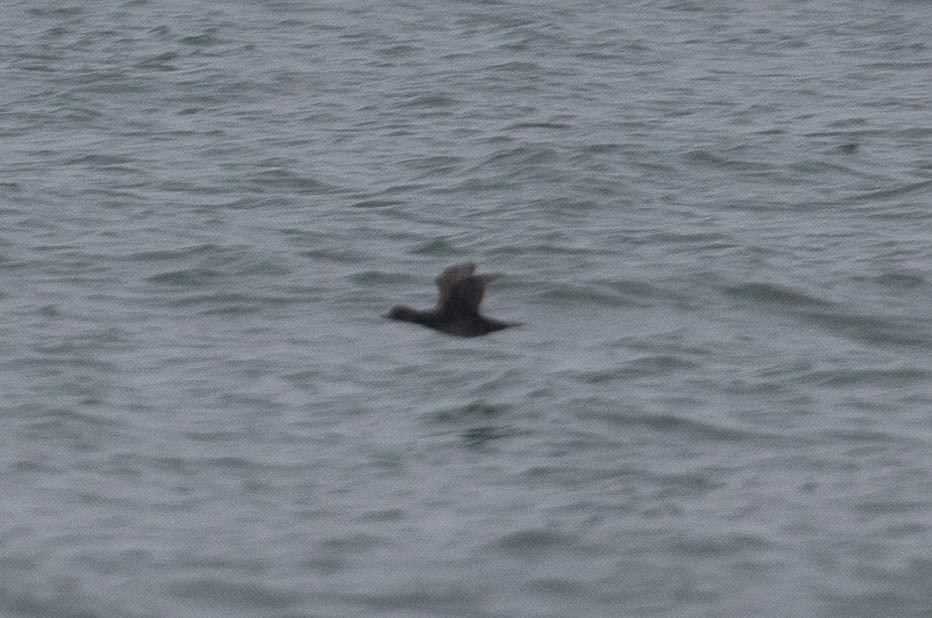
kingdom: Animalia
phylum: Chordata
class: Aves
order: Anseriformes
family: Anatidae
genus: Melanitta
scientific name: Melanitta americana
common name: Black scoter
